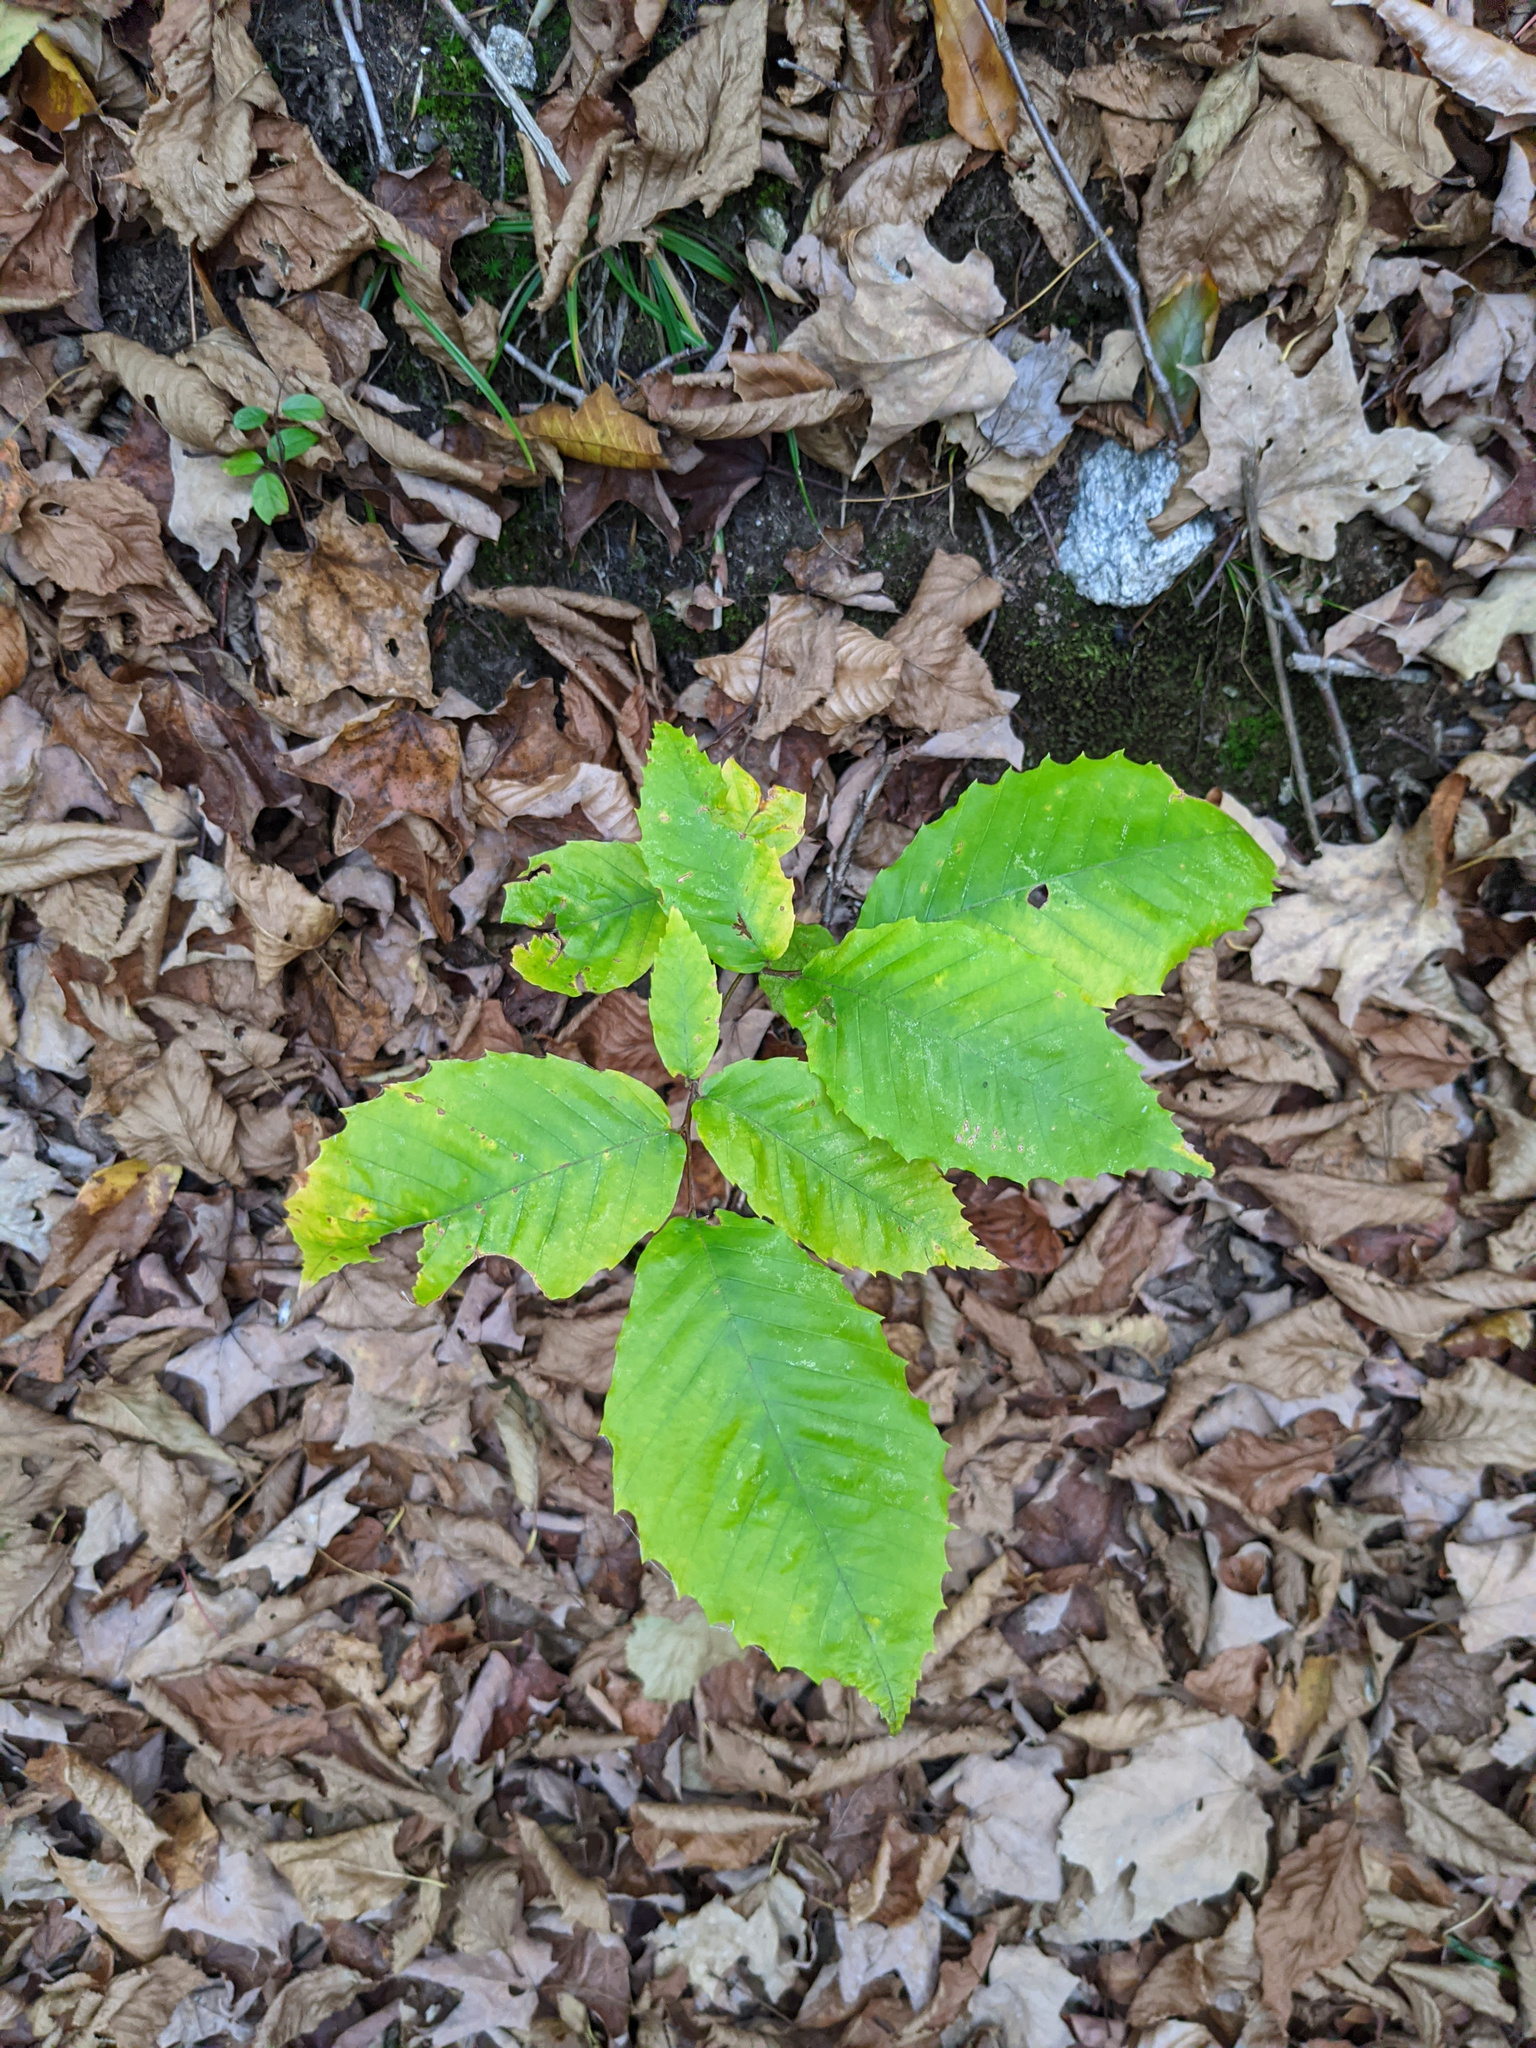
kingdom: Plantae
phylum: Tracheophyta
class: Magnoliopsida
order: Fagales
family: Fagaceae
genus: Fagus
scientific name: Fagus grandifolia
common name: American beech
